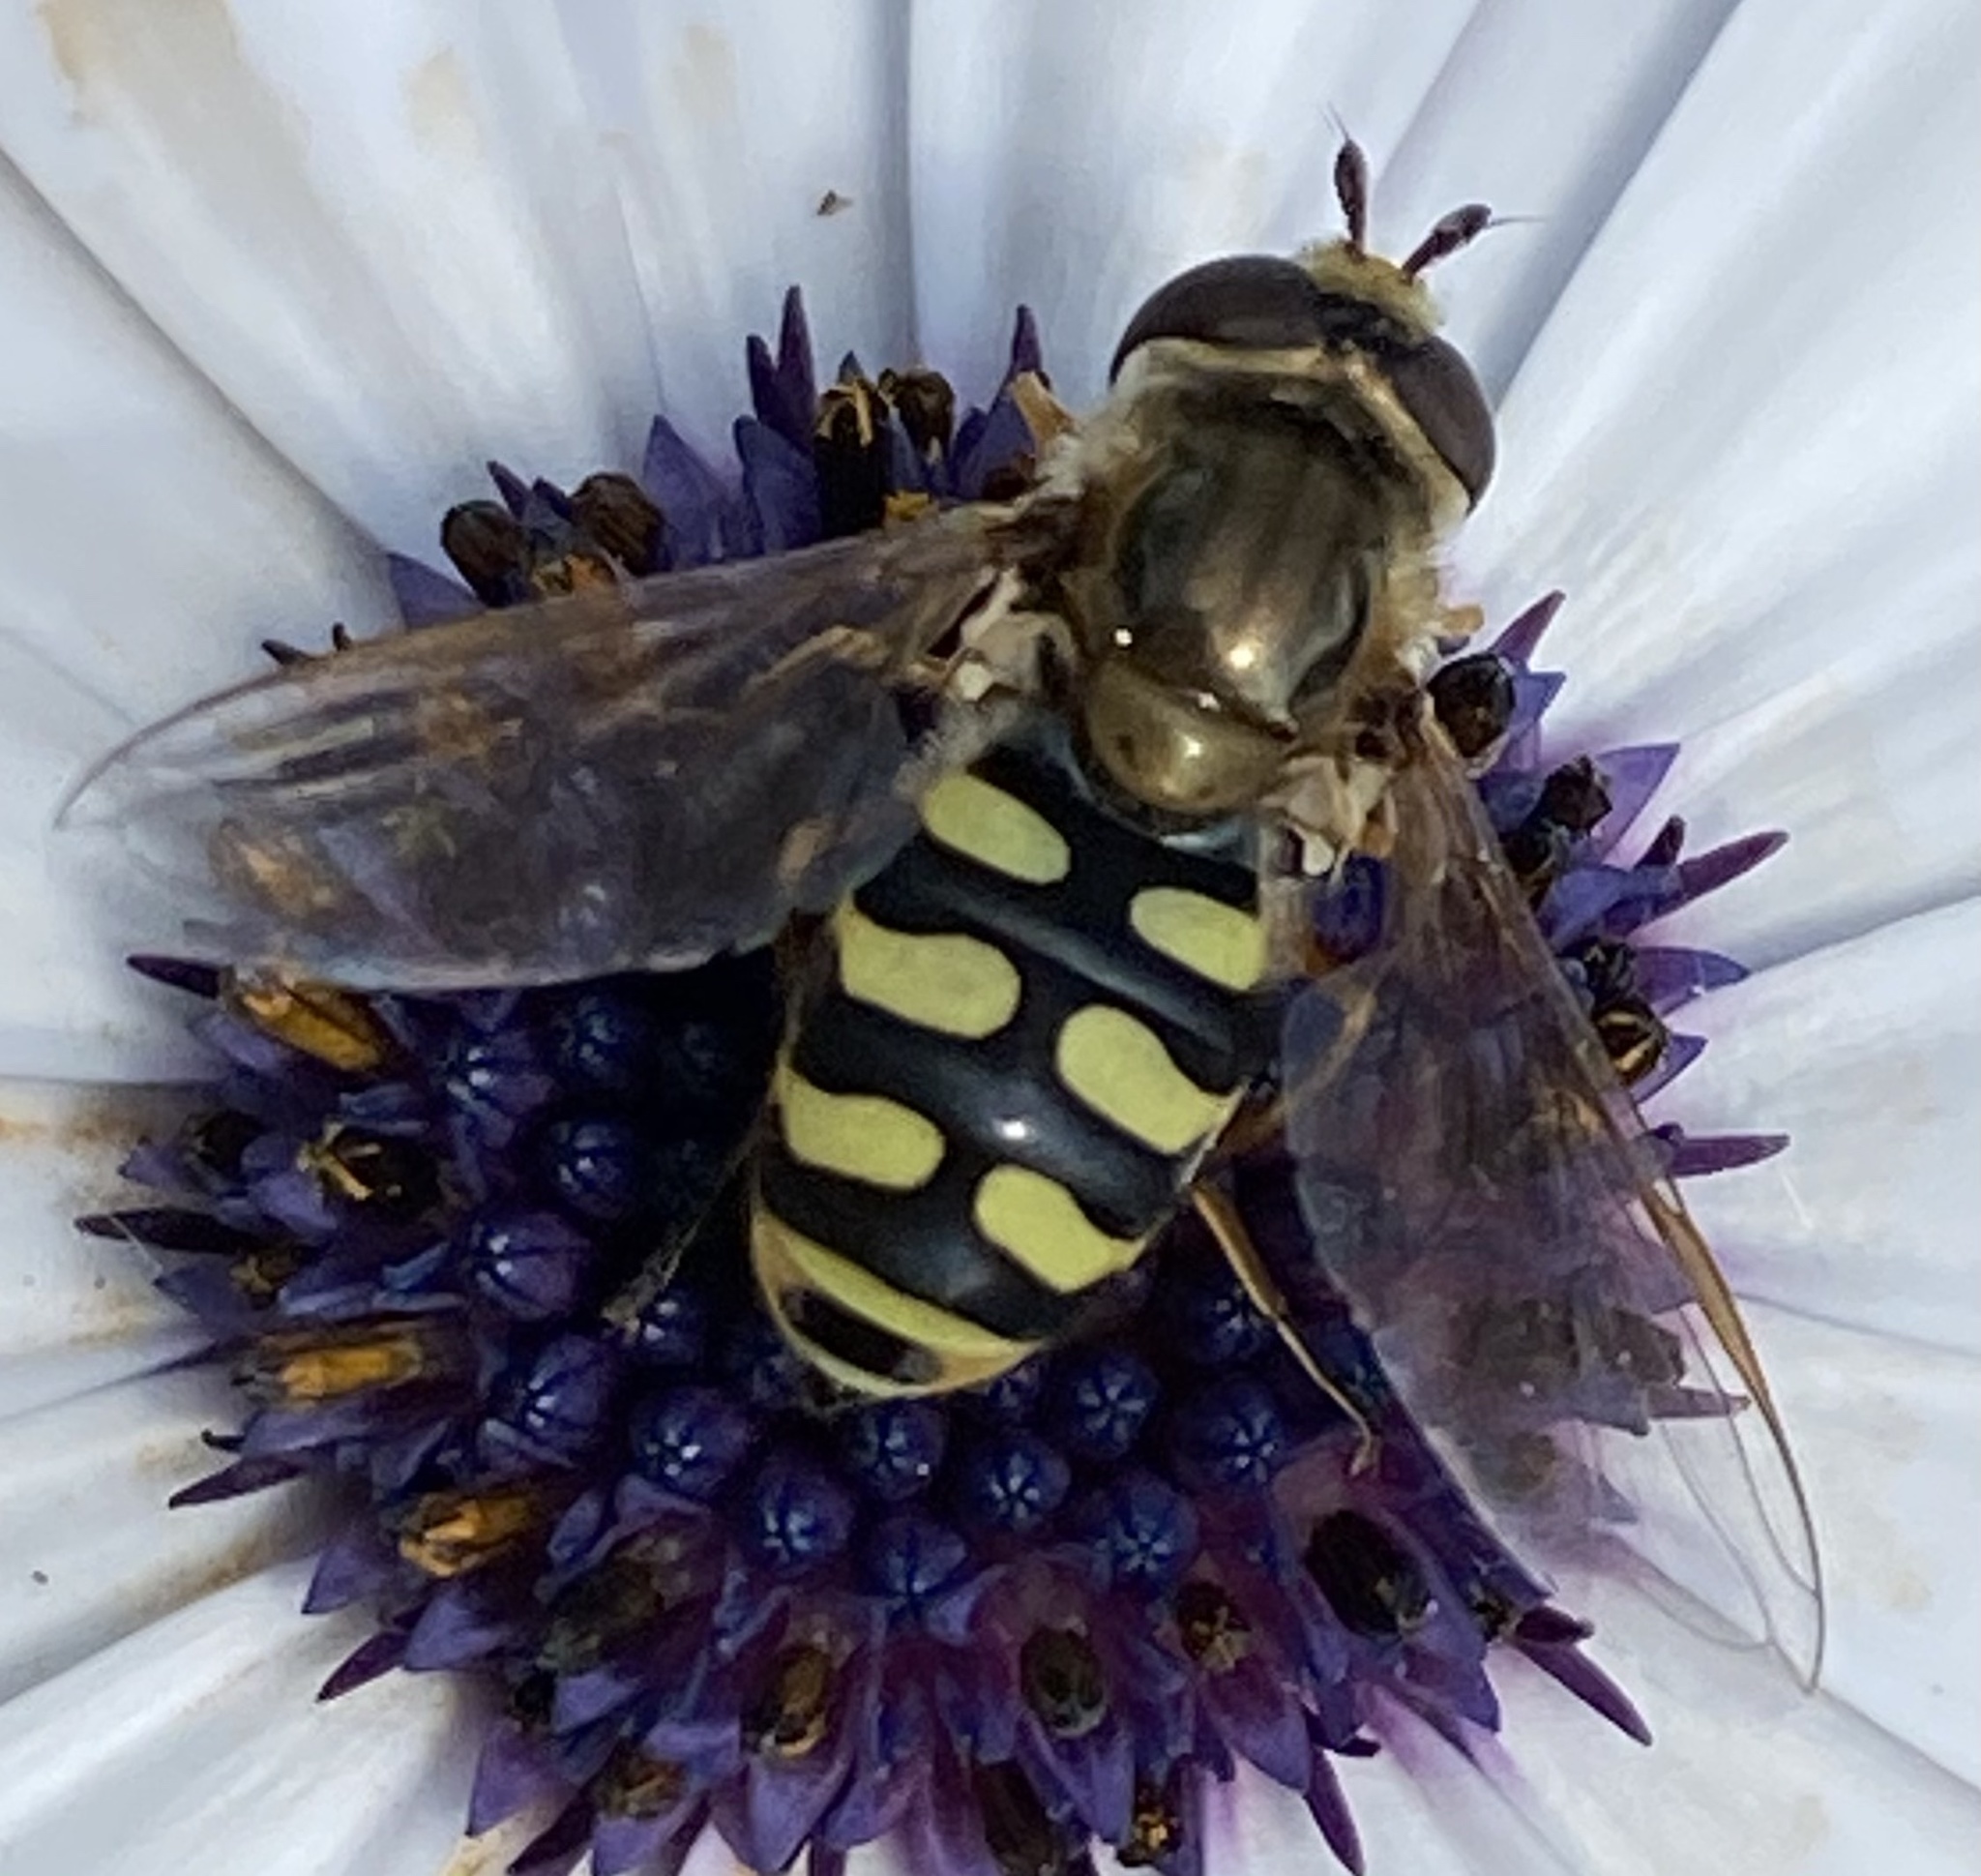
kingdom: Animalia
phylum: Arthropoda
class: Insecta
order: Diptera
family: Syrphidae
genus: Eupeodes
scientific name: Eupeodes corollae
